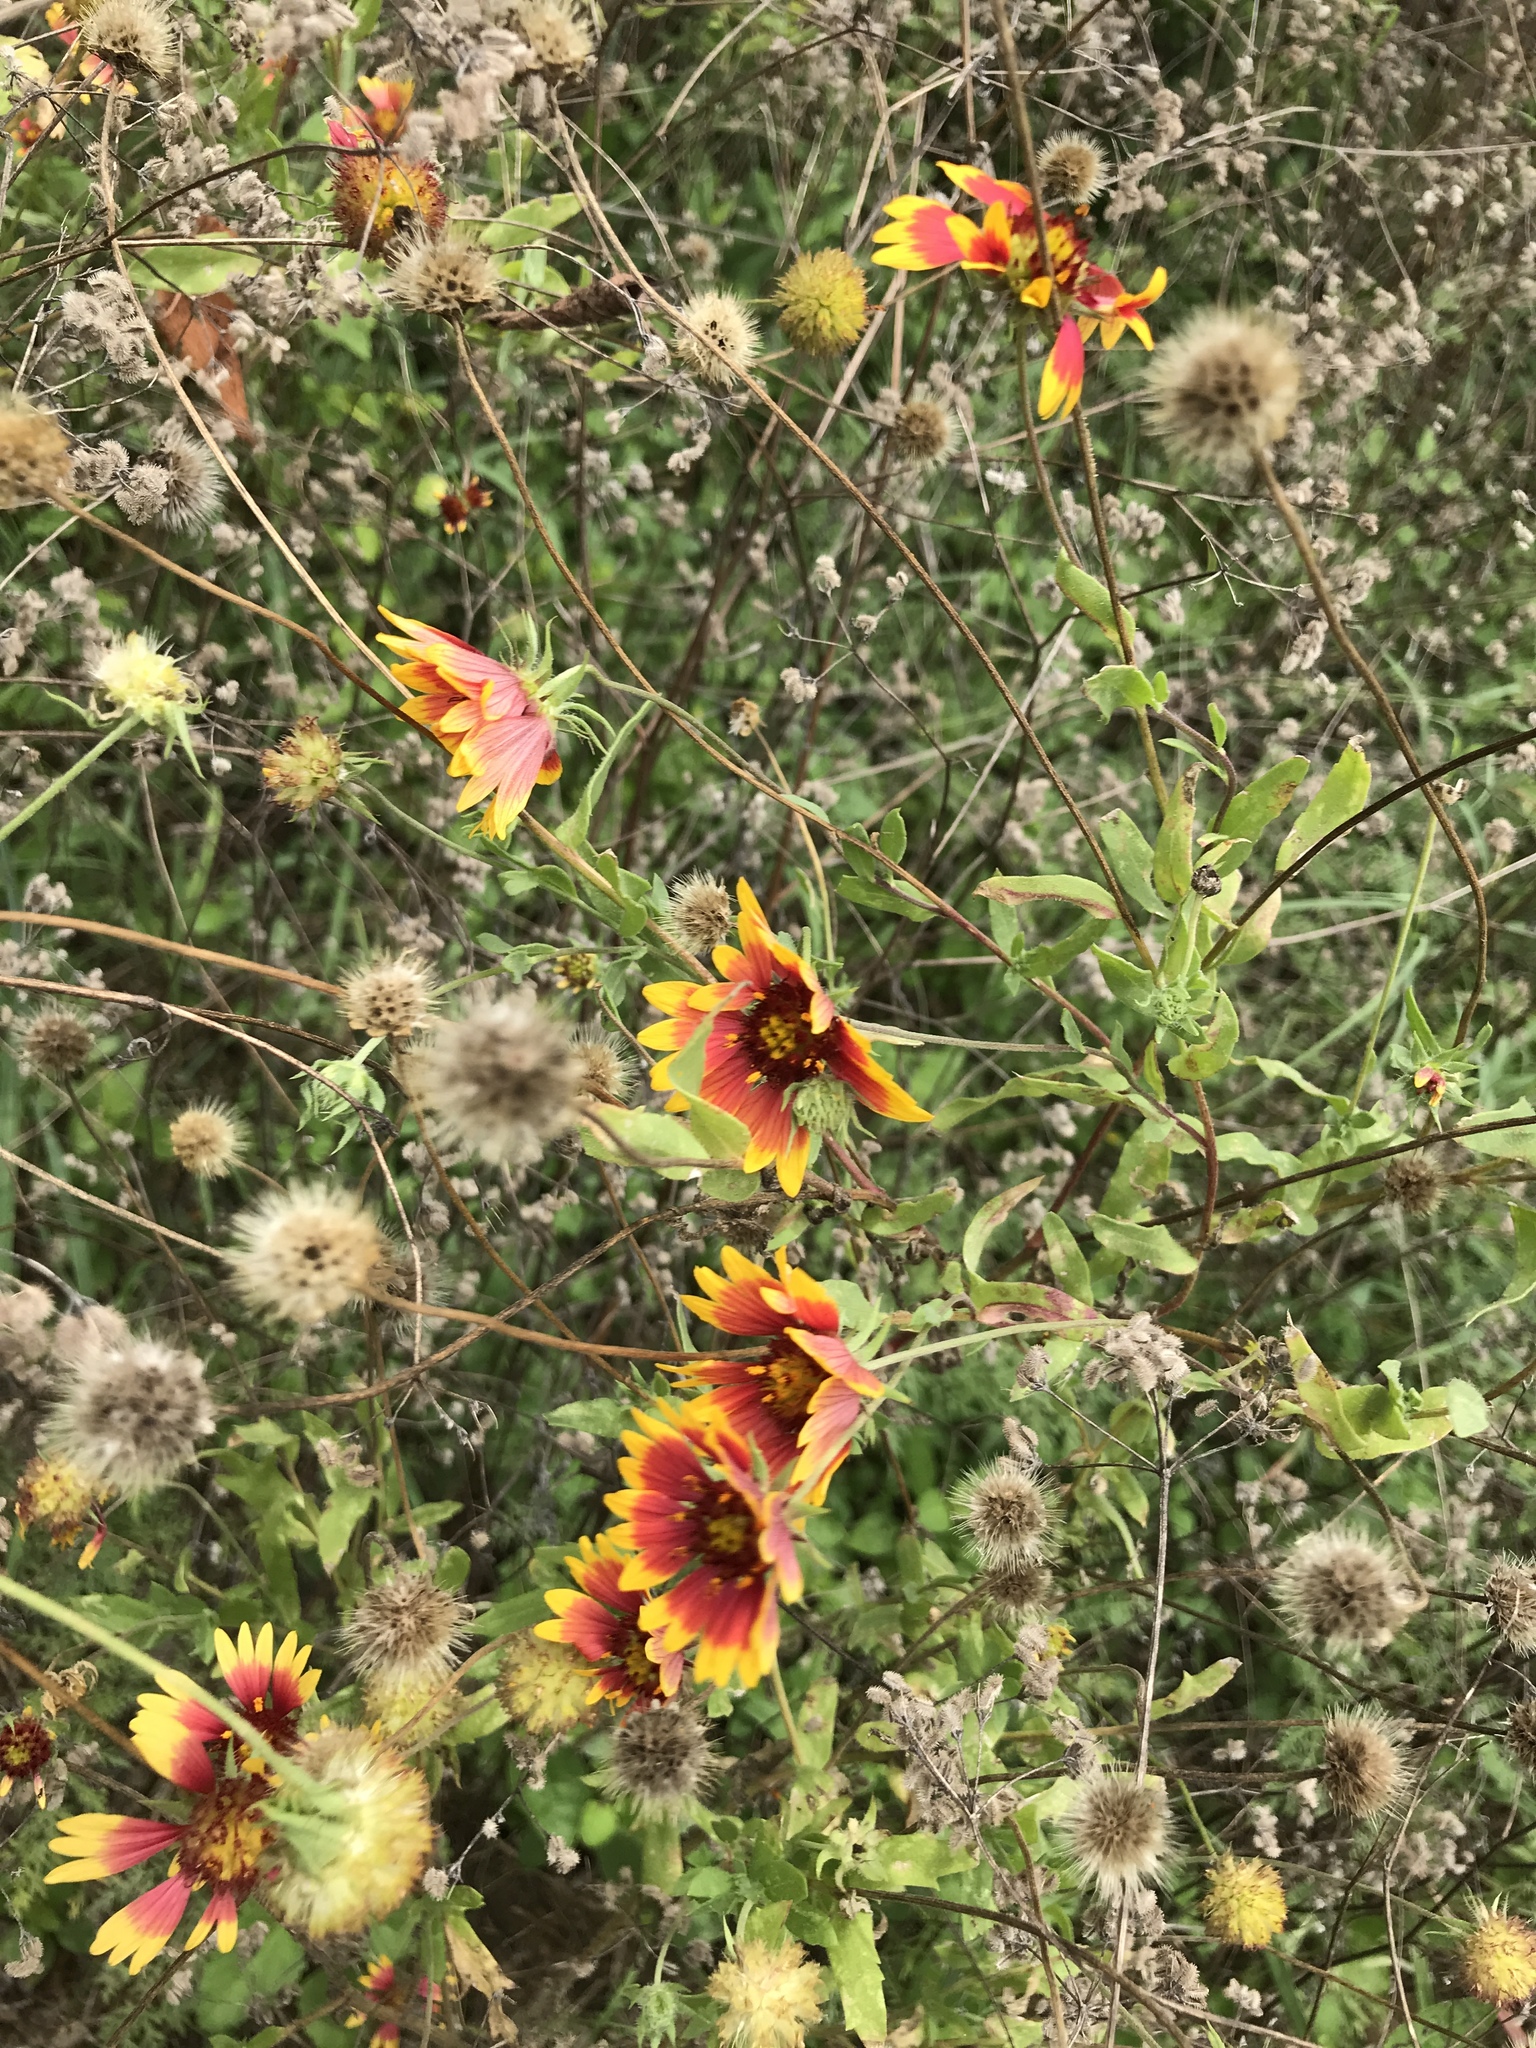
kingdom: Plantae
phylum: Tracheophyta
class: Magnoliopsida
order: Asterales
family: Asteraceae
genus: Gaillardia
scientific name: Gaillardia pulchella
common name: Firewheel
